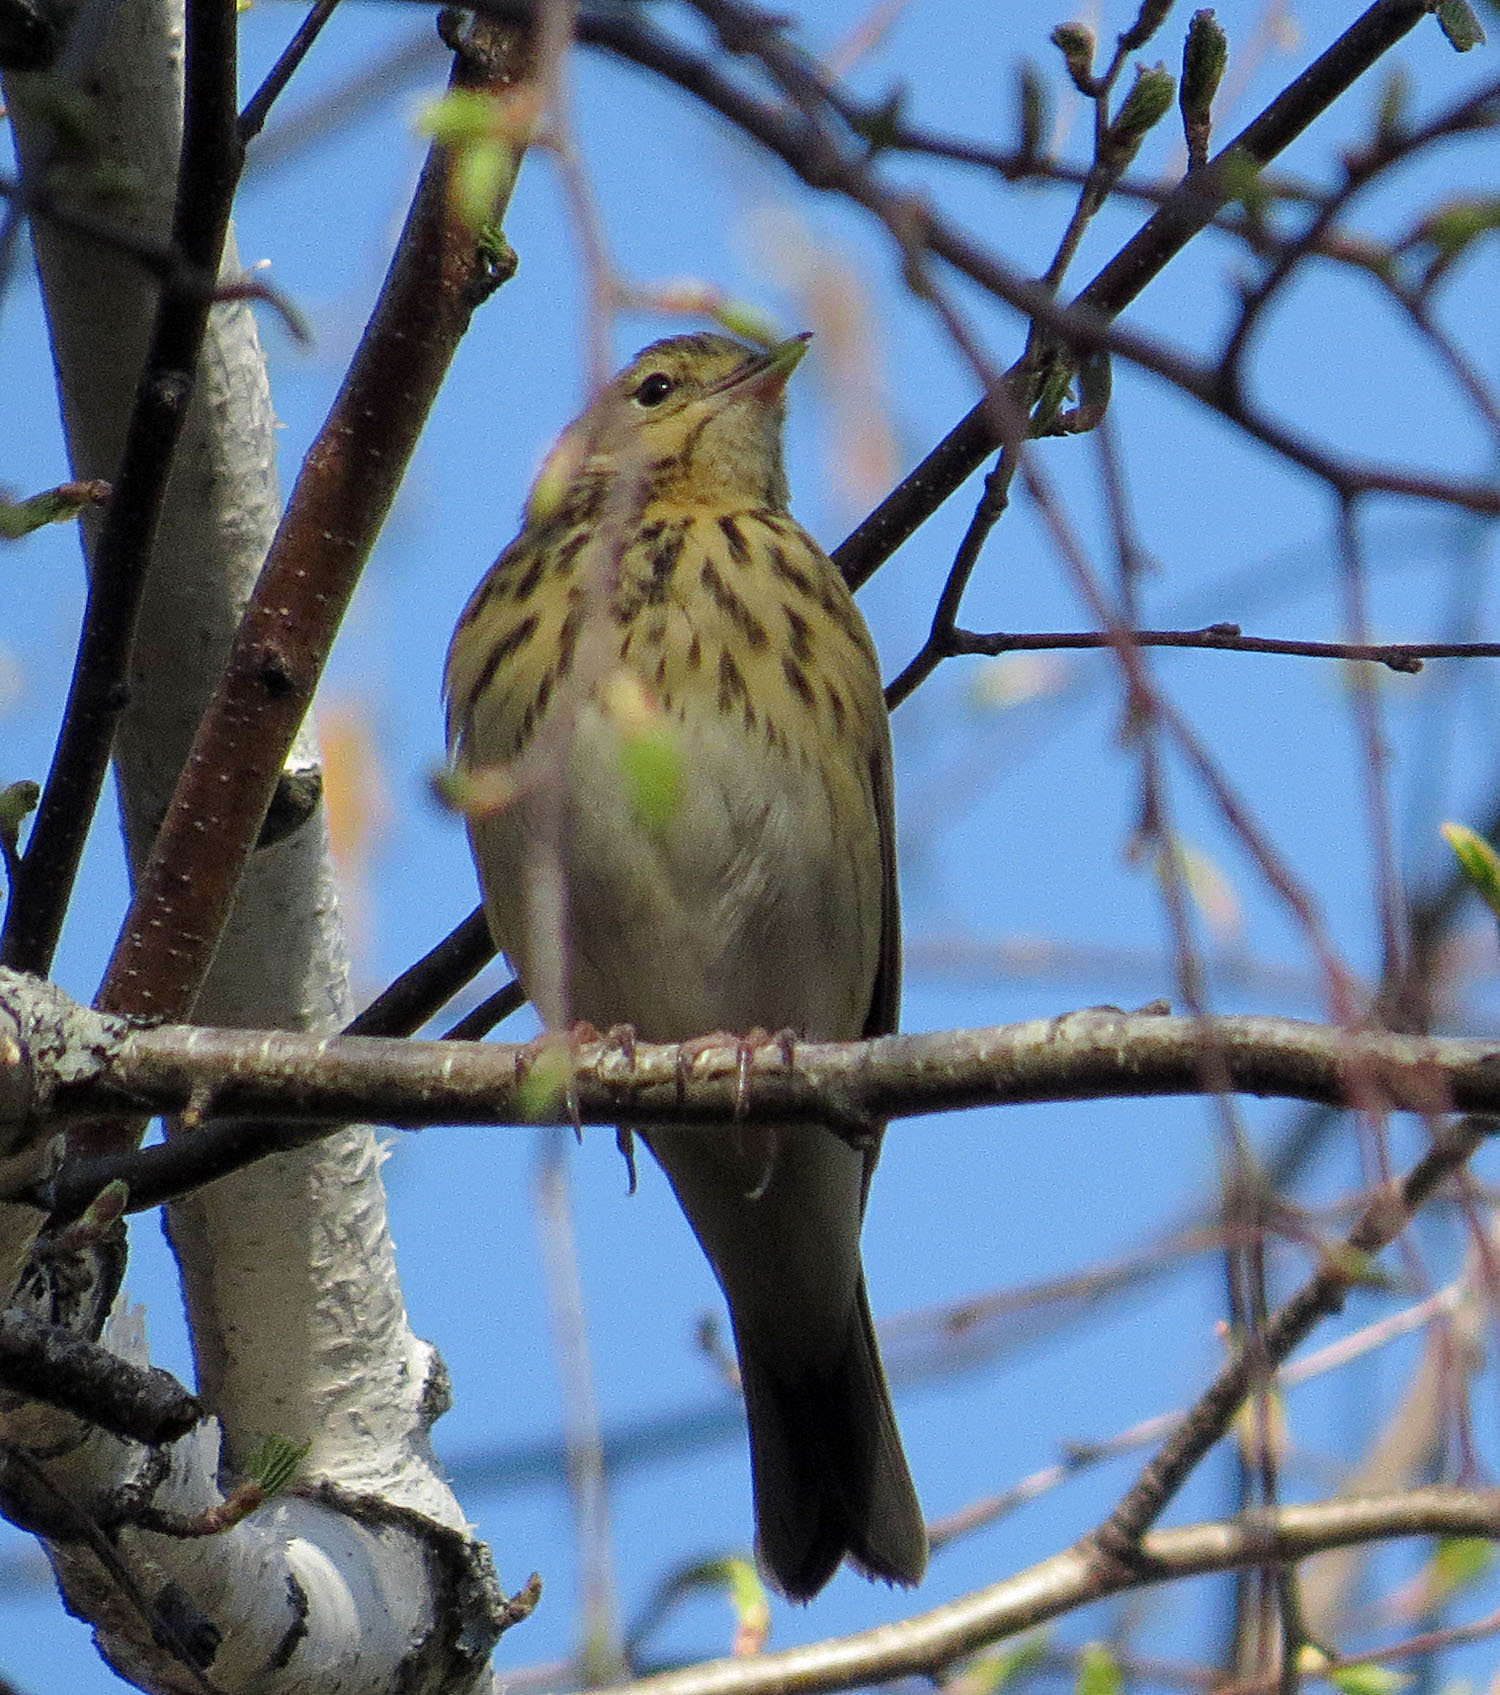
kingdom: Animalia
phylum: Chordata
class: Aves
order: Passeriformes
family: Motacillidae
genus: Anthus
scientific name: Anthus trivialis
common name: Tree pipit
